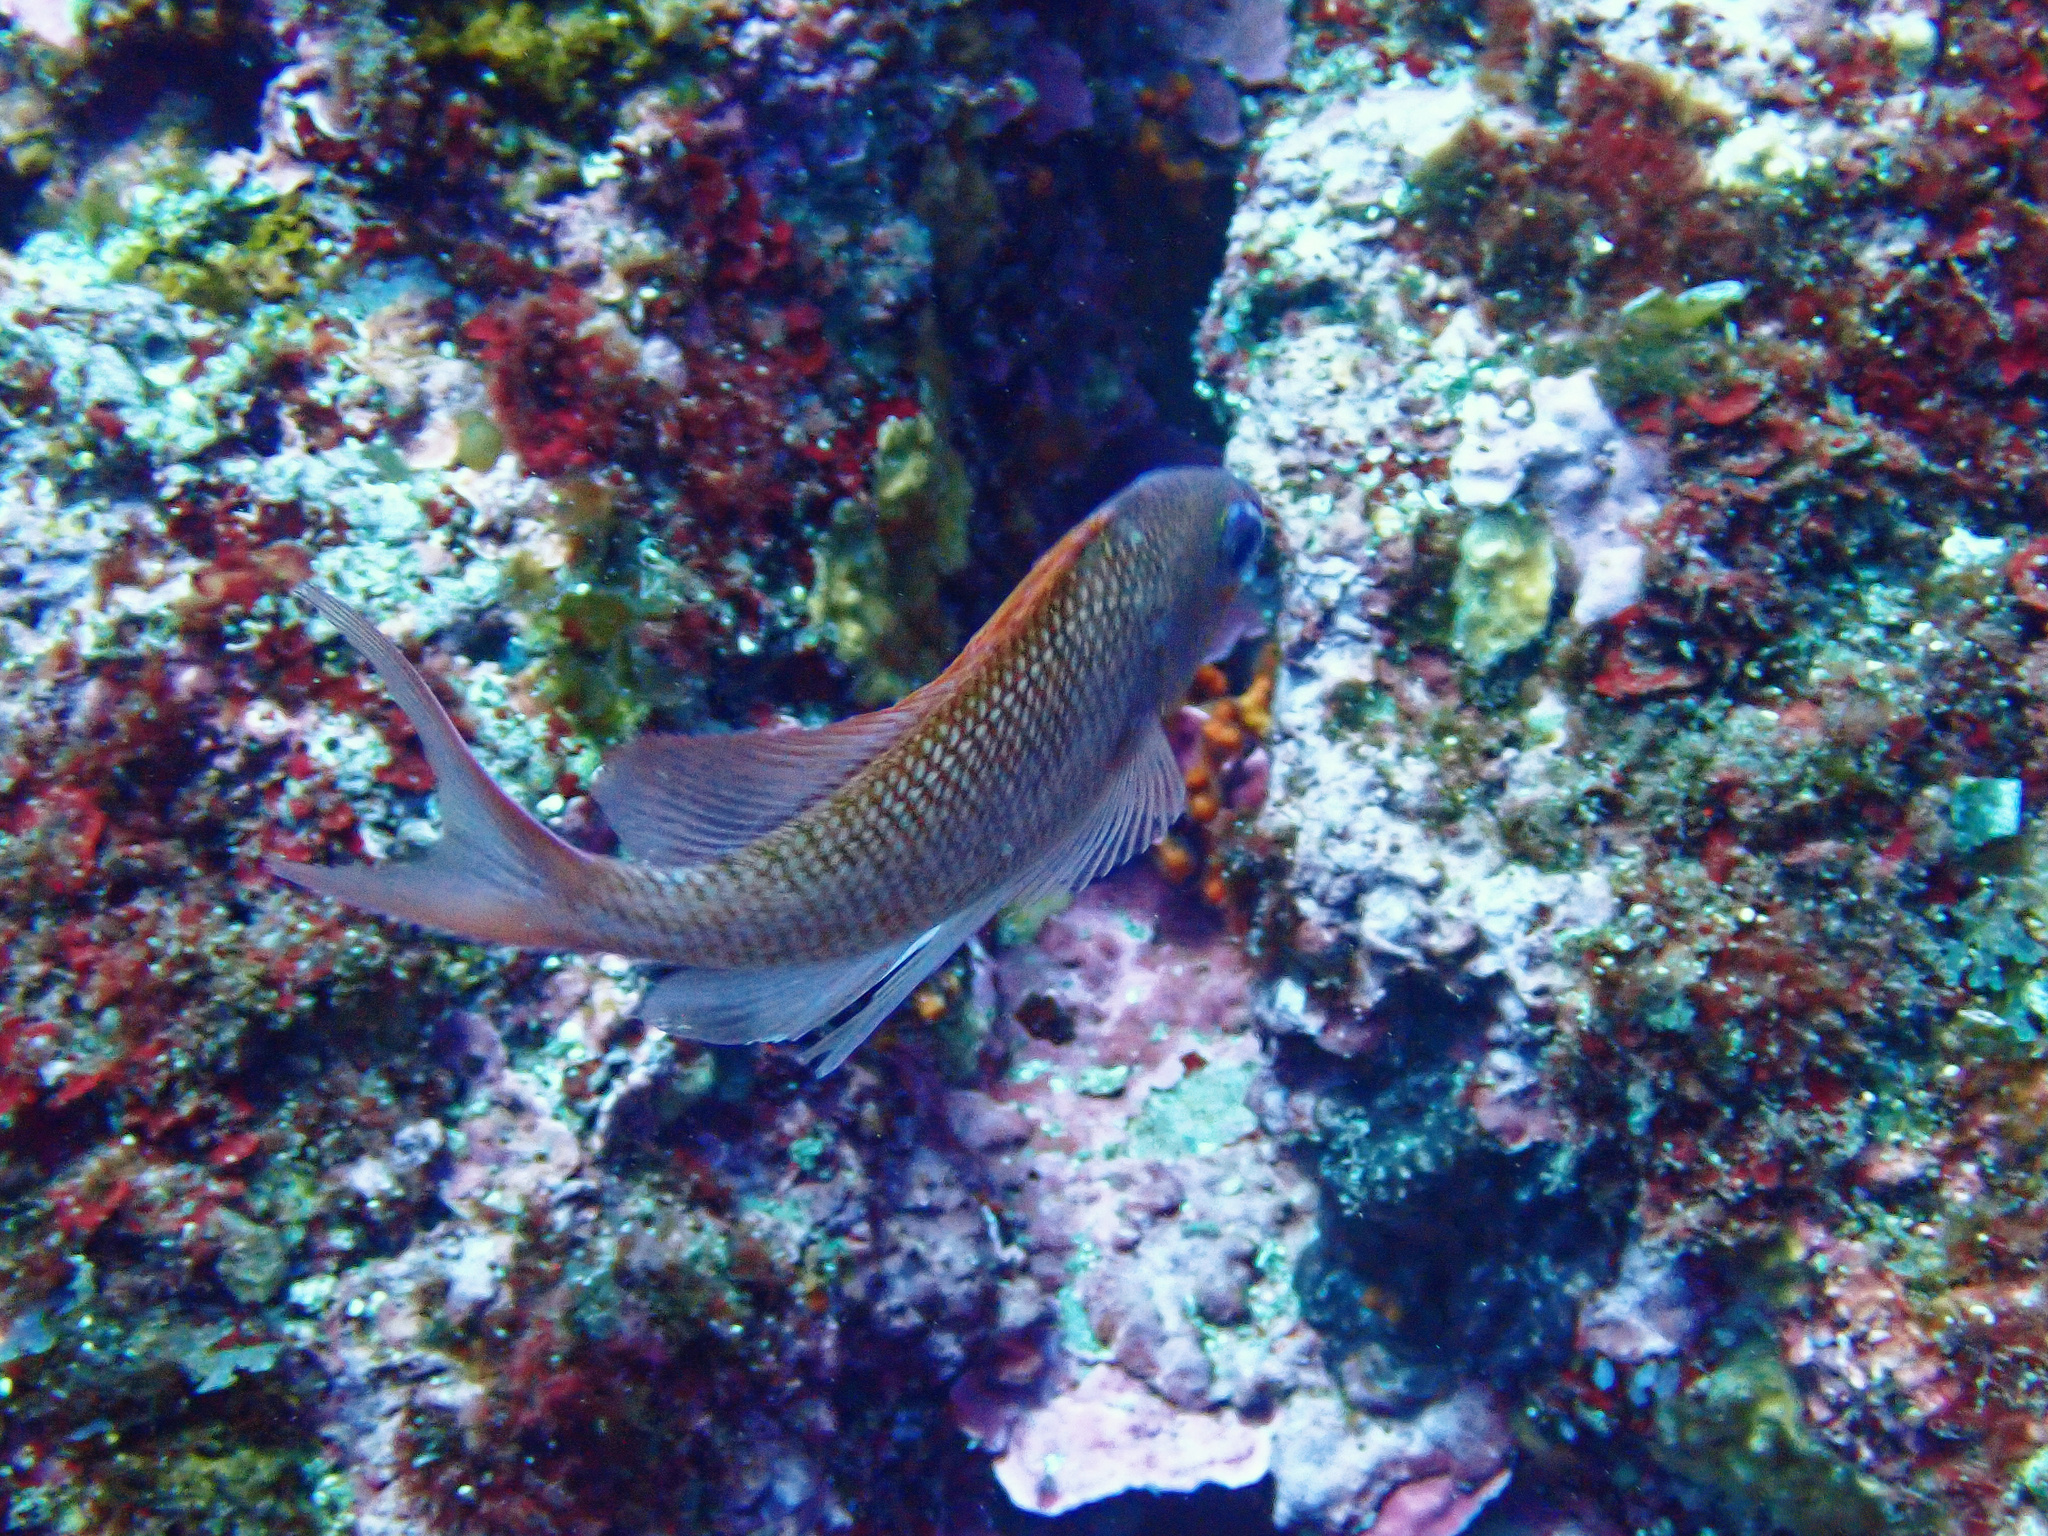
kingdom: Animalia
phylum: Chordata
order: Perciformes
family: Serranidae
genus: Anthias
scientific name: Anthias anthias
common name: Swallowtail seaperch
